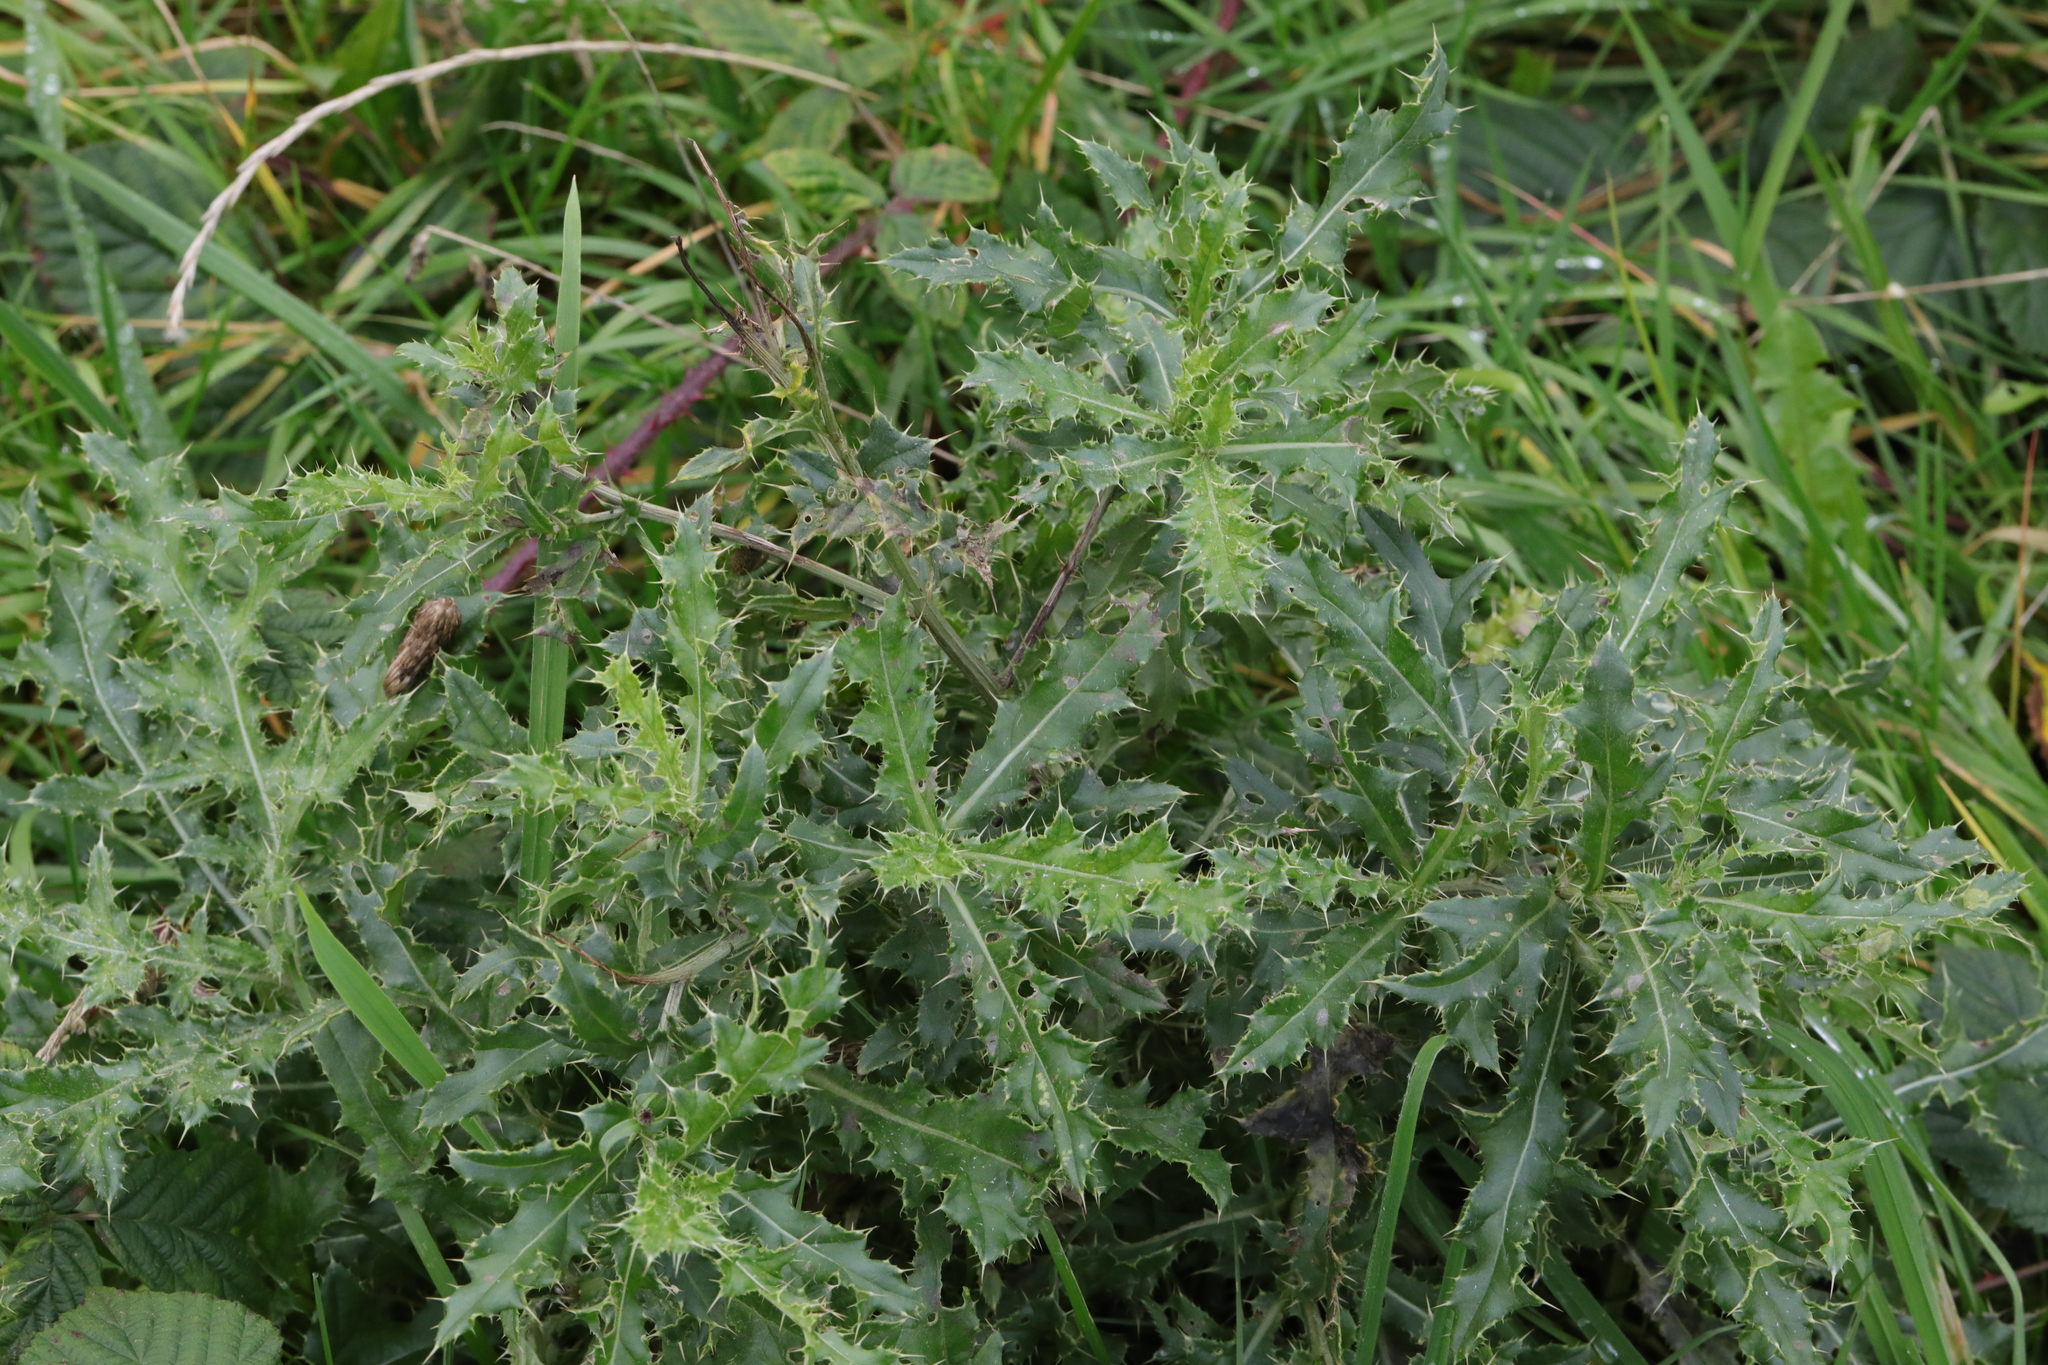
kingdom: Plantae
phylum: Tracheophyta
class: Magnoliopsida
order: Asterales
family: Asteraceae
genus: Cirsium
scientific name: Cirsium arvense
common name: Creeping thistle
